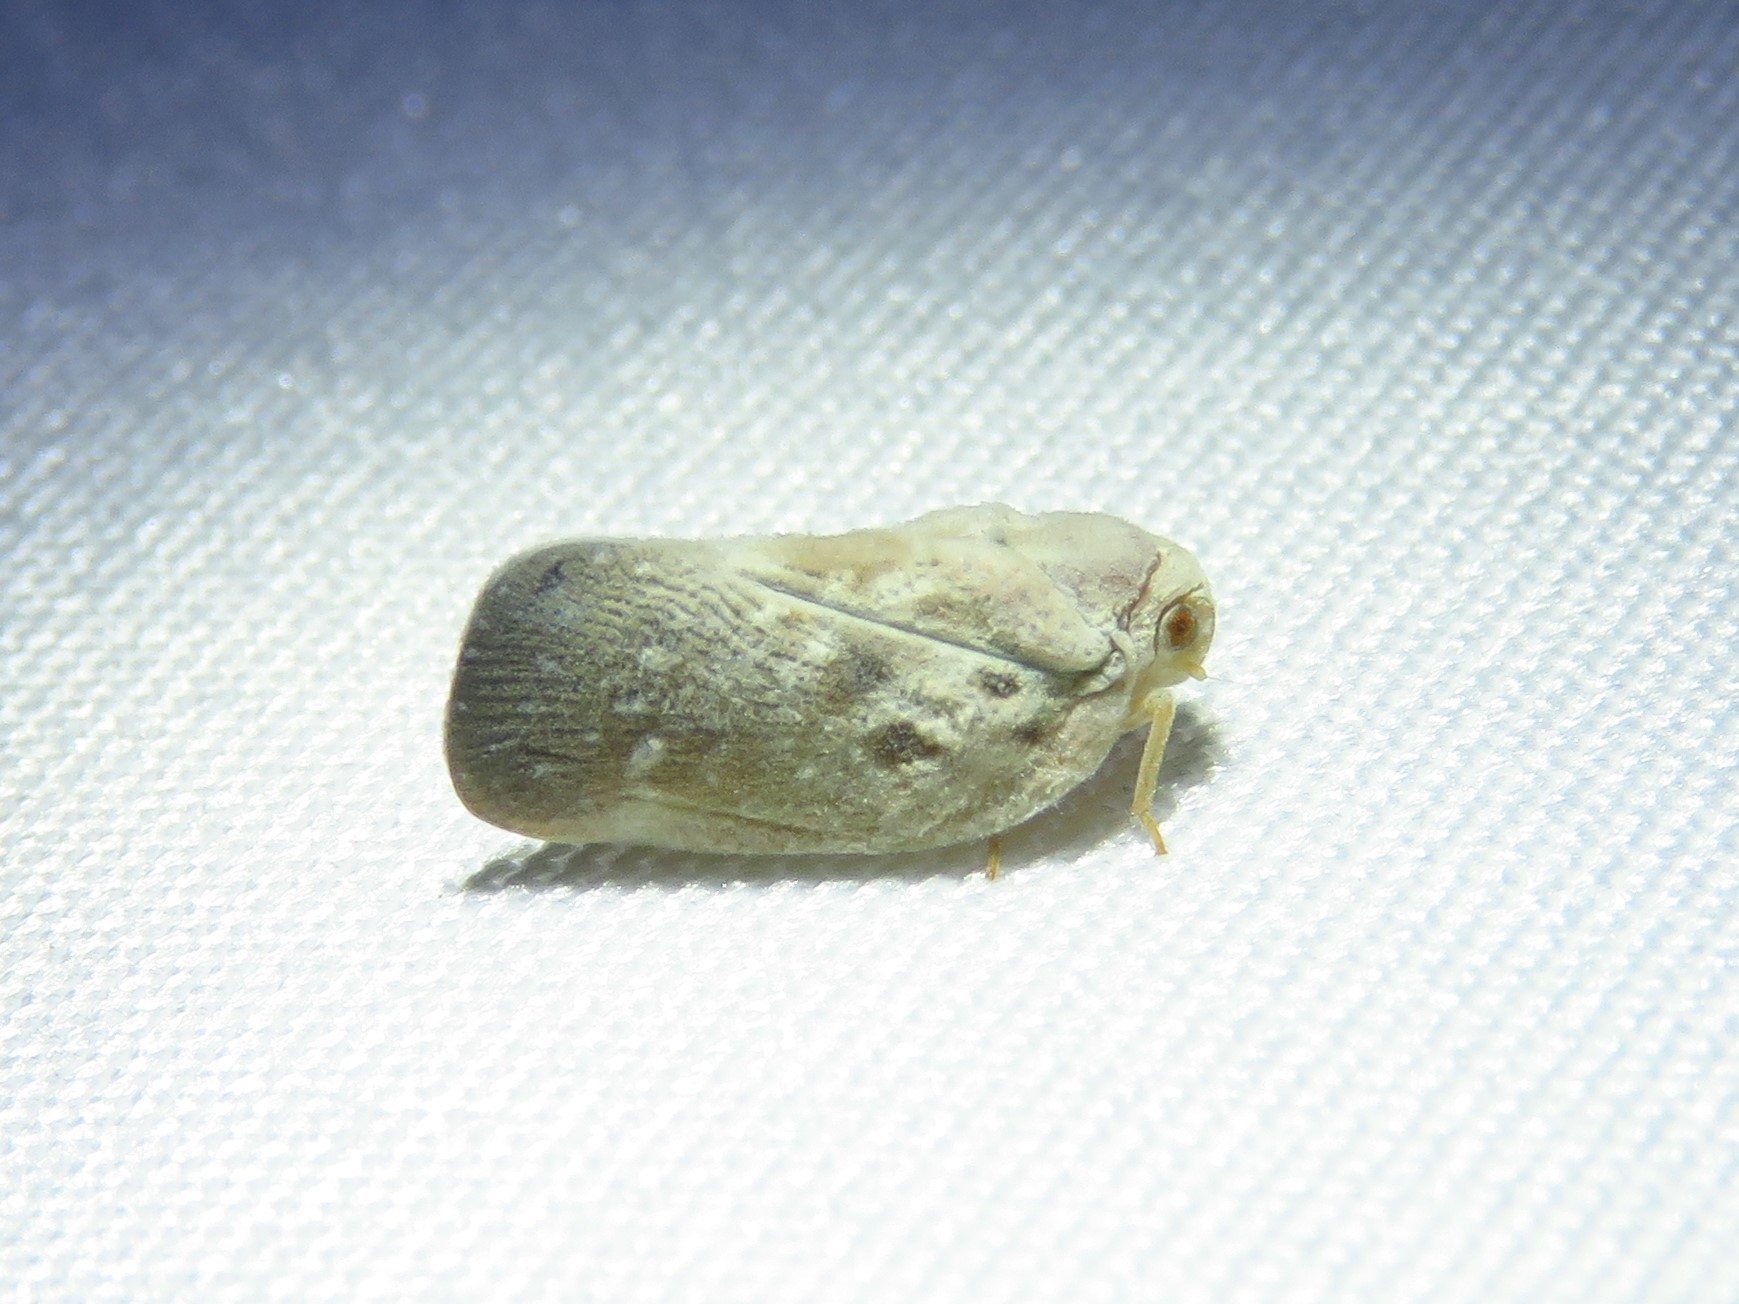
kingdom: Animalia
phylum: Arthropoda
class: Insecta
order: Hemiptera
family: Flatidae
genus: Metcalfa
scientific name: Metcalfa pruinosa
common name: Citrus flatid planthopper
